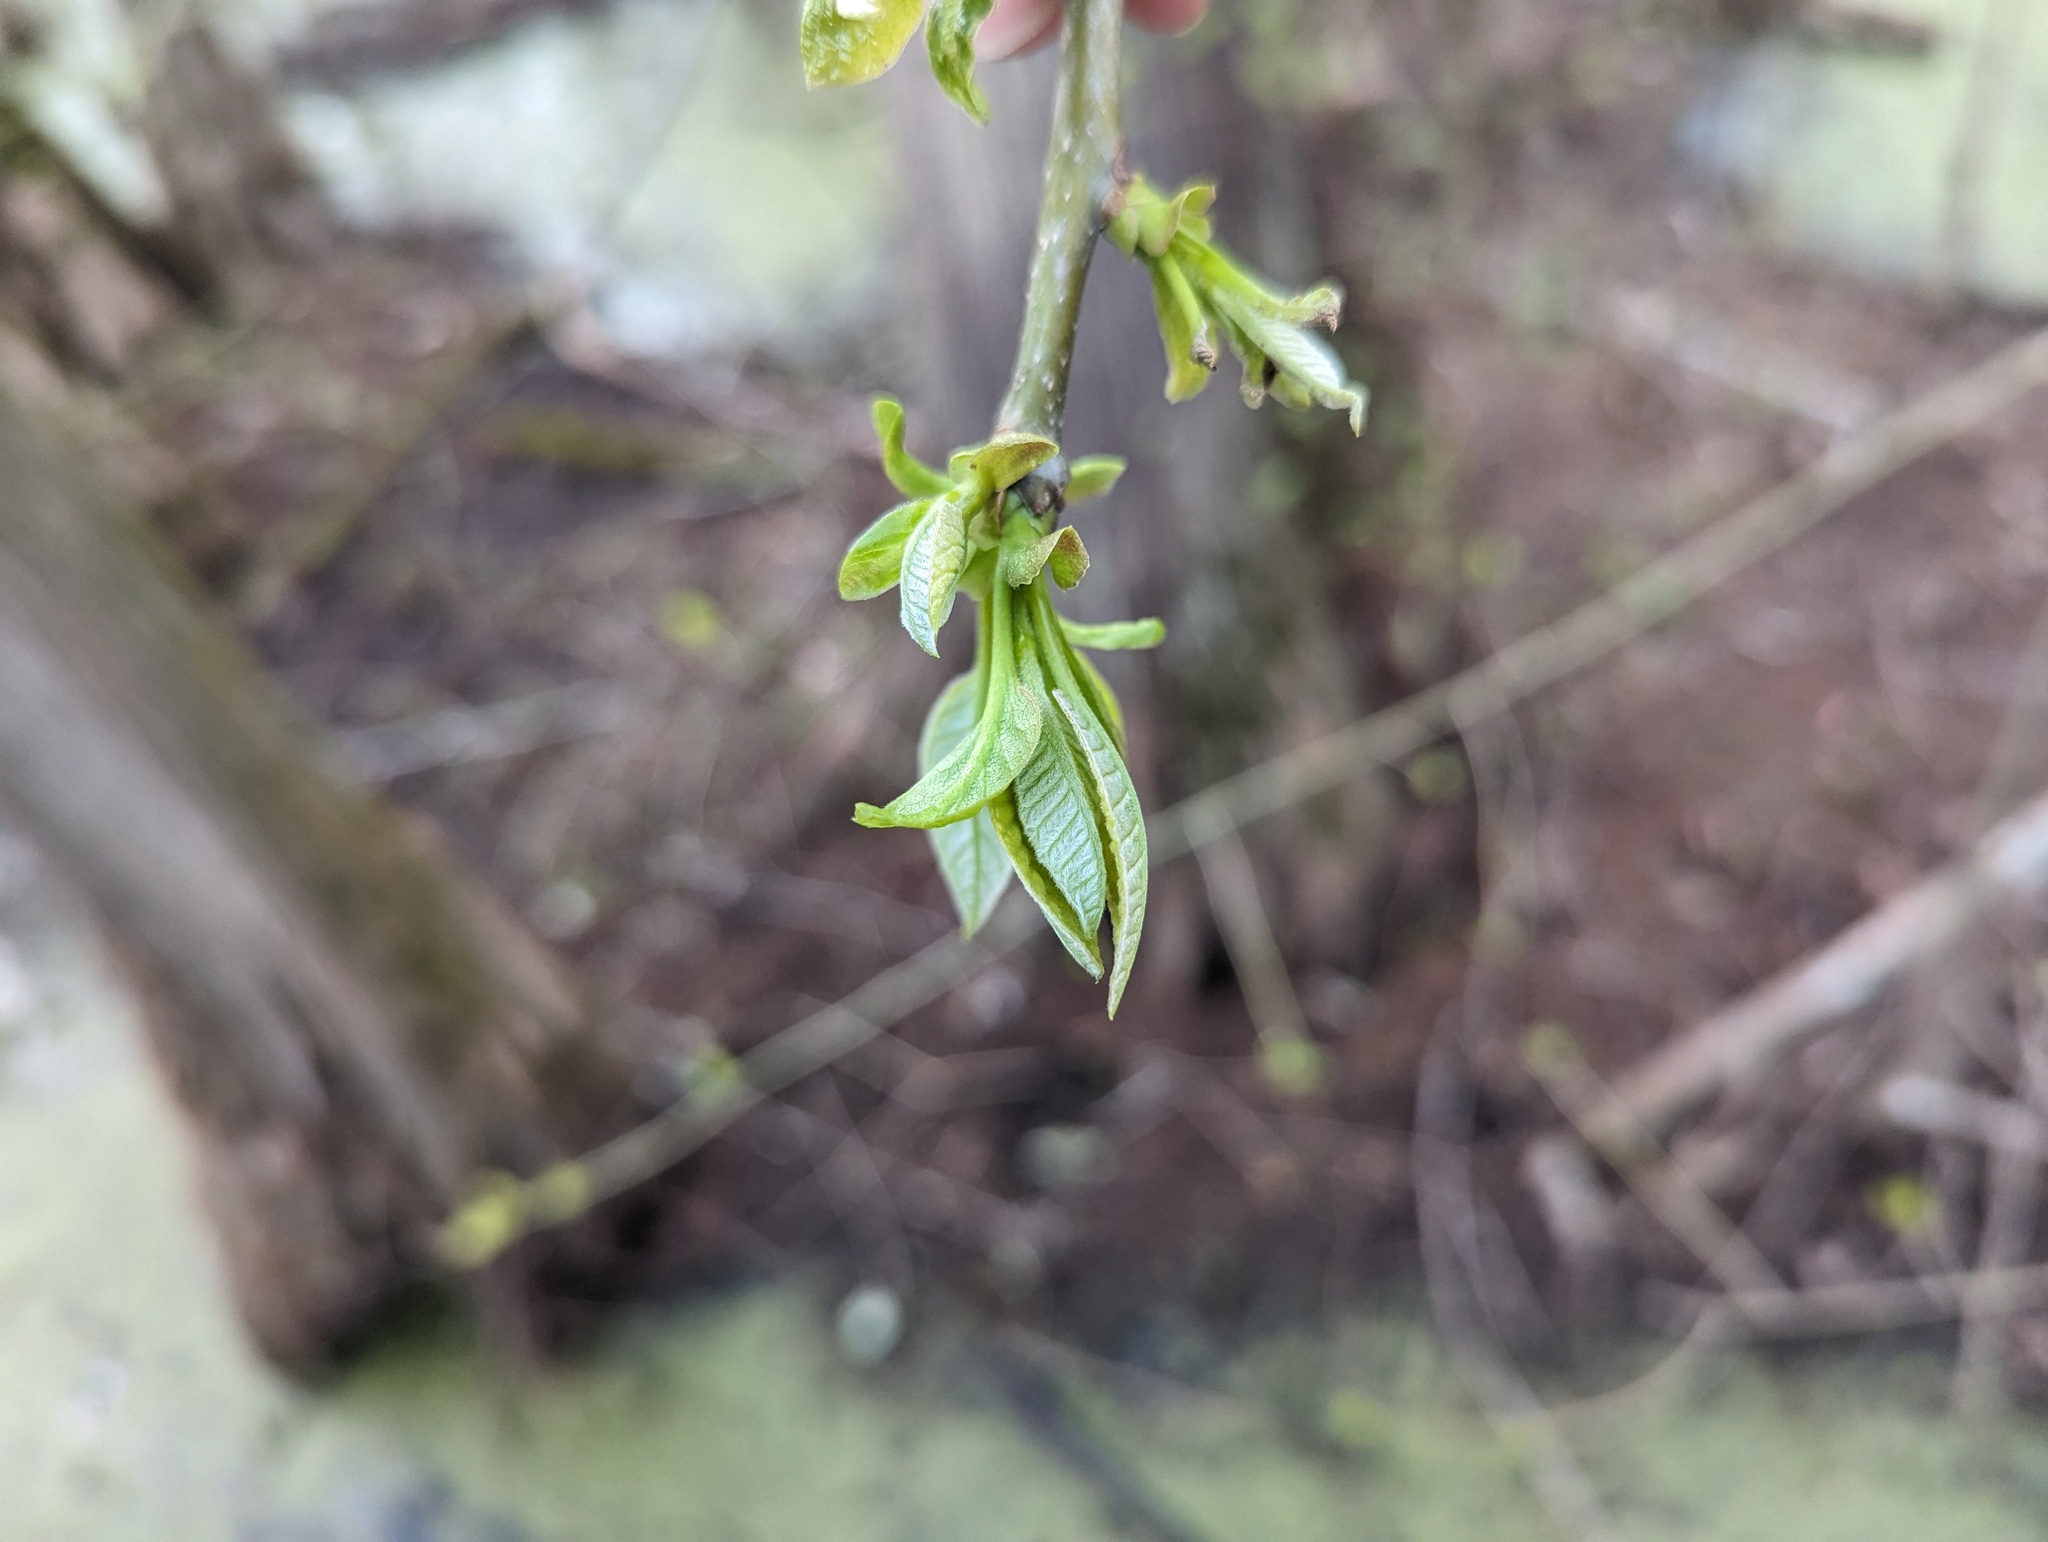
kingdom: Plantae
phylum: Tracheophyta
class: Magnoliopsida
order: Cornales
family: Nyssaceae
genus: Nyssa
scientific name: Nyssa aquatica
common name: Swamp tupelo
